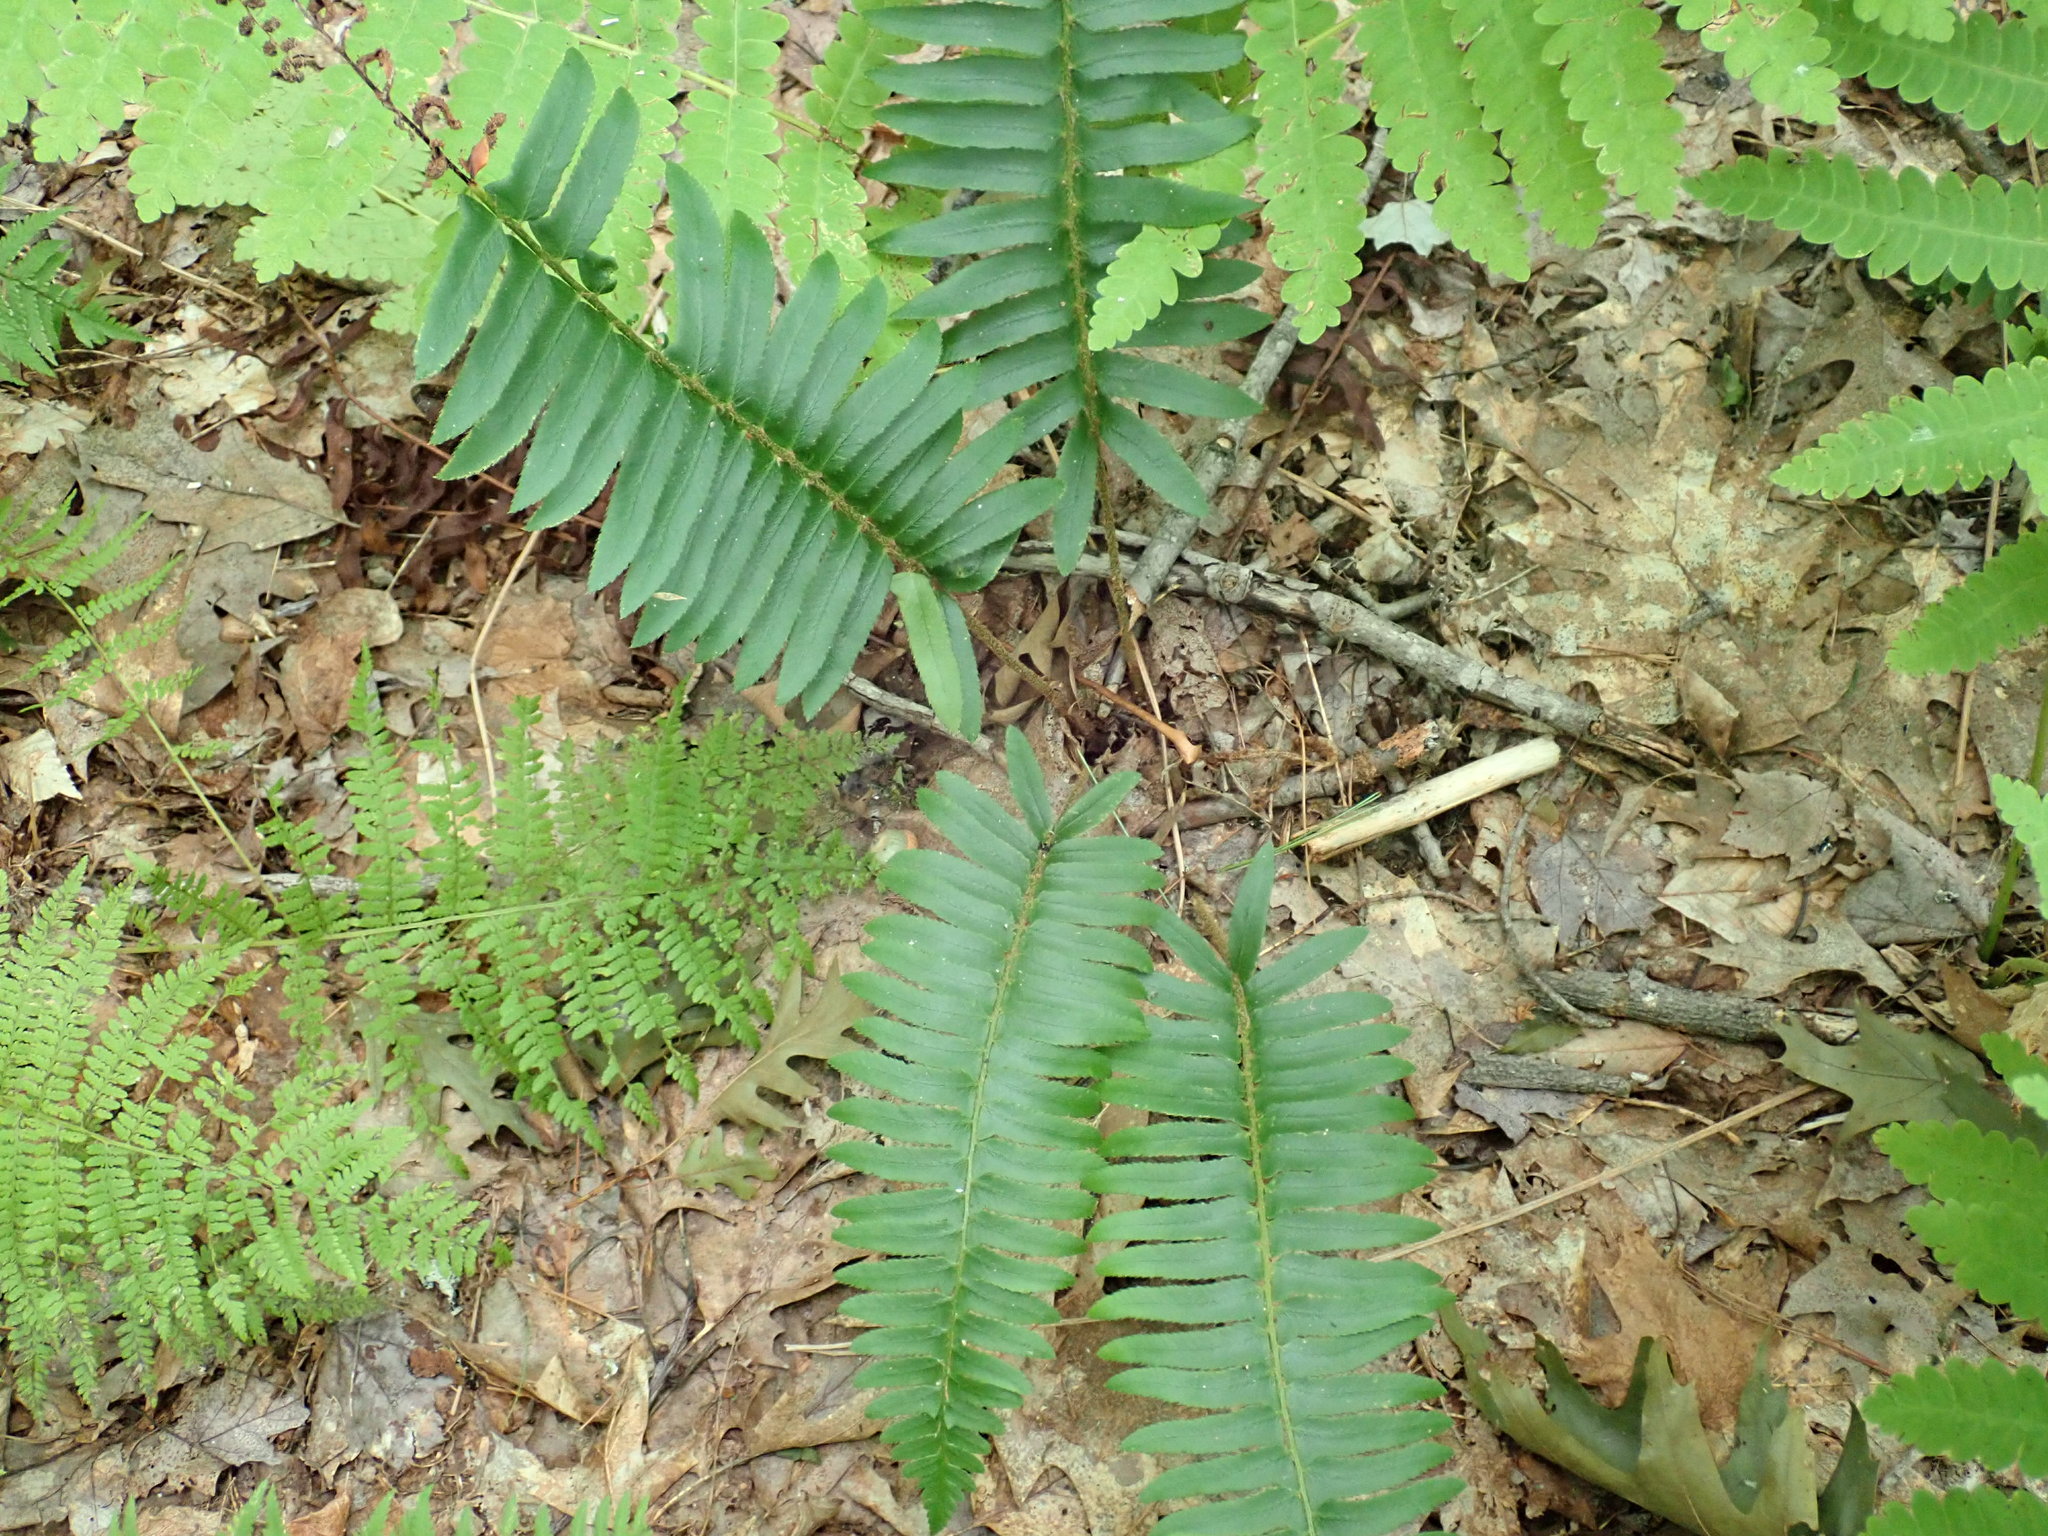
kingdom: Plantae
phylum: Tracheophyta
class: Polypodiopsida
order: Polypodiales
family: Dryopteridaceae
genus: Polystichum
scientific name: Polystichum acrostichoides
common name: Christmas fern
